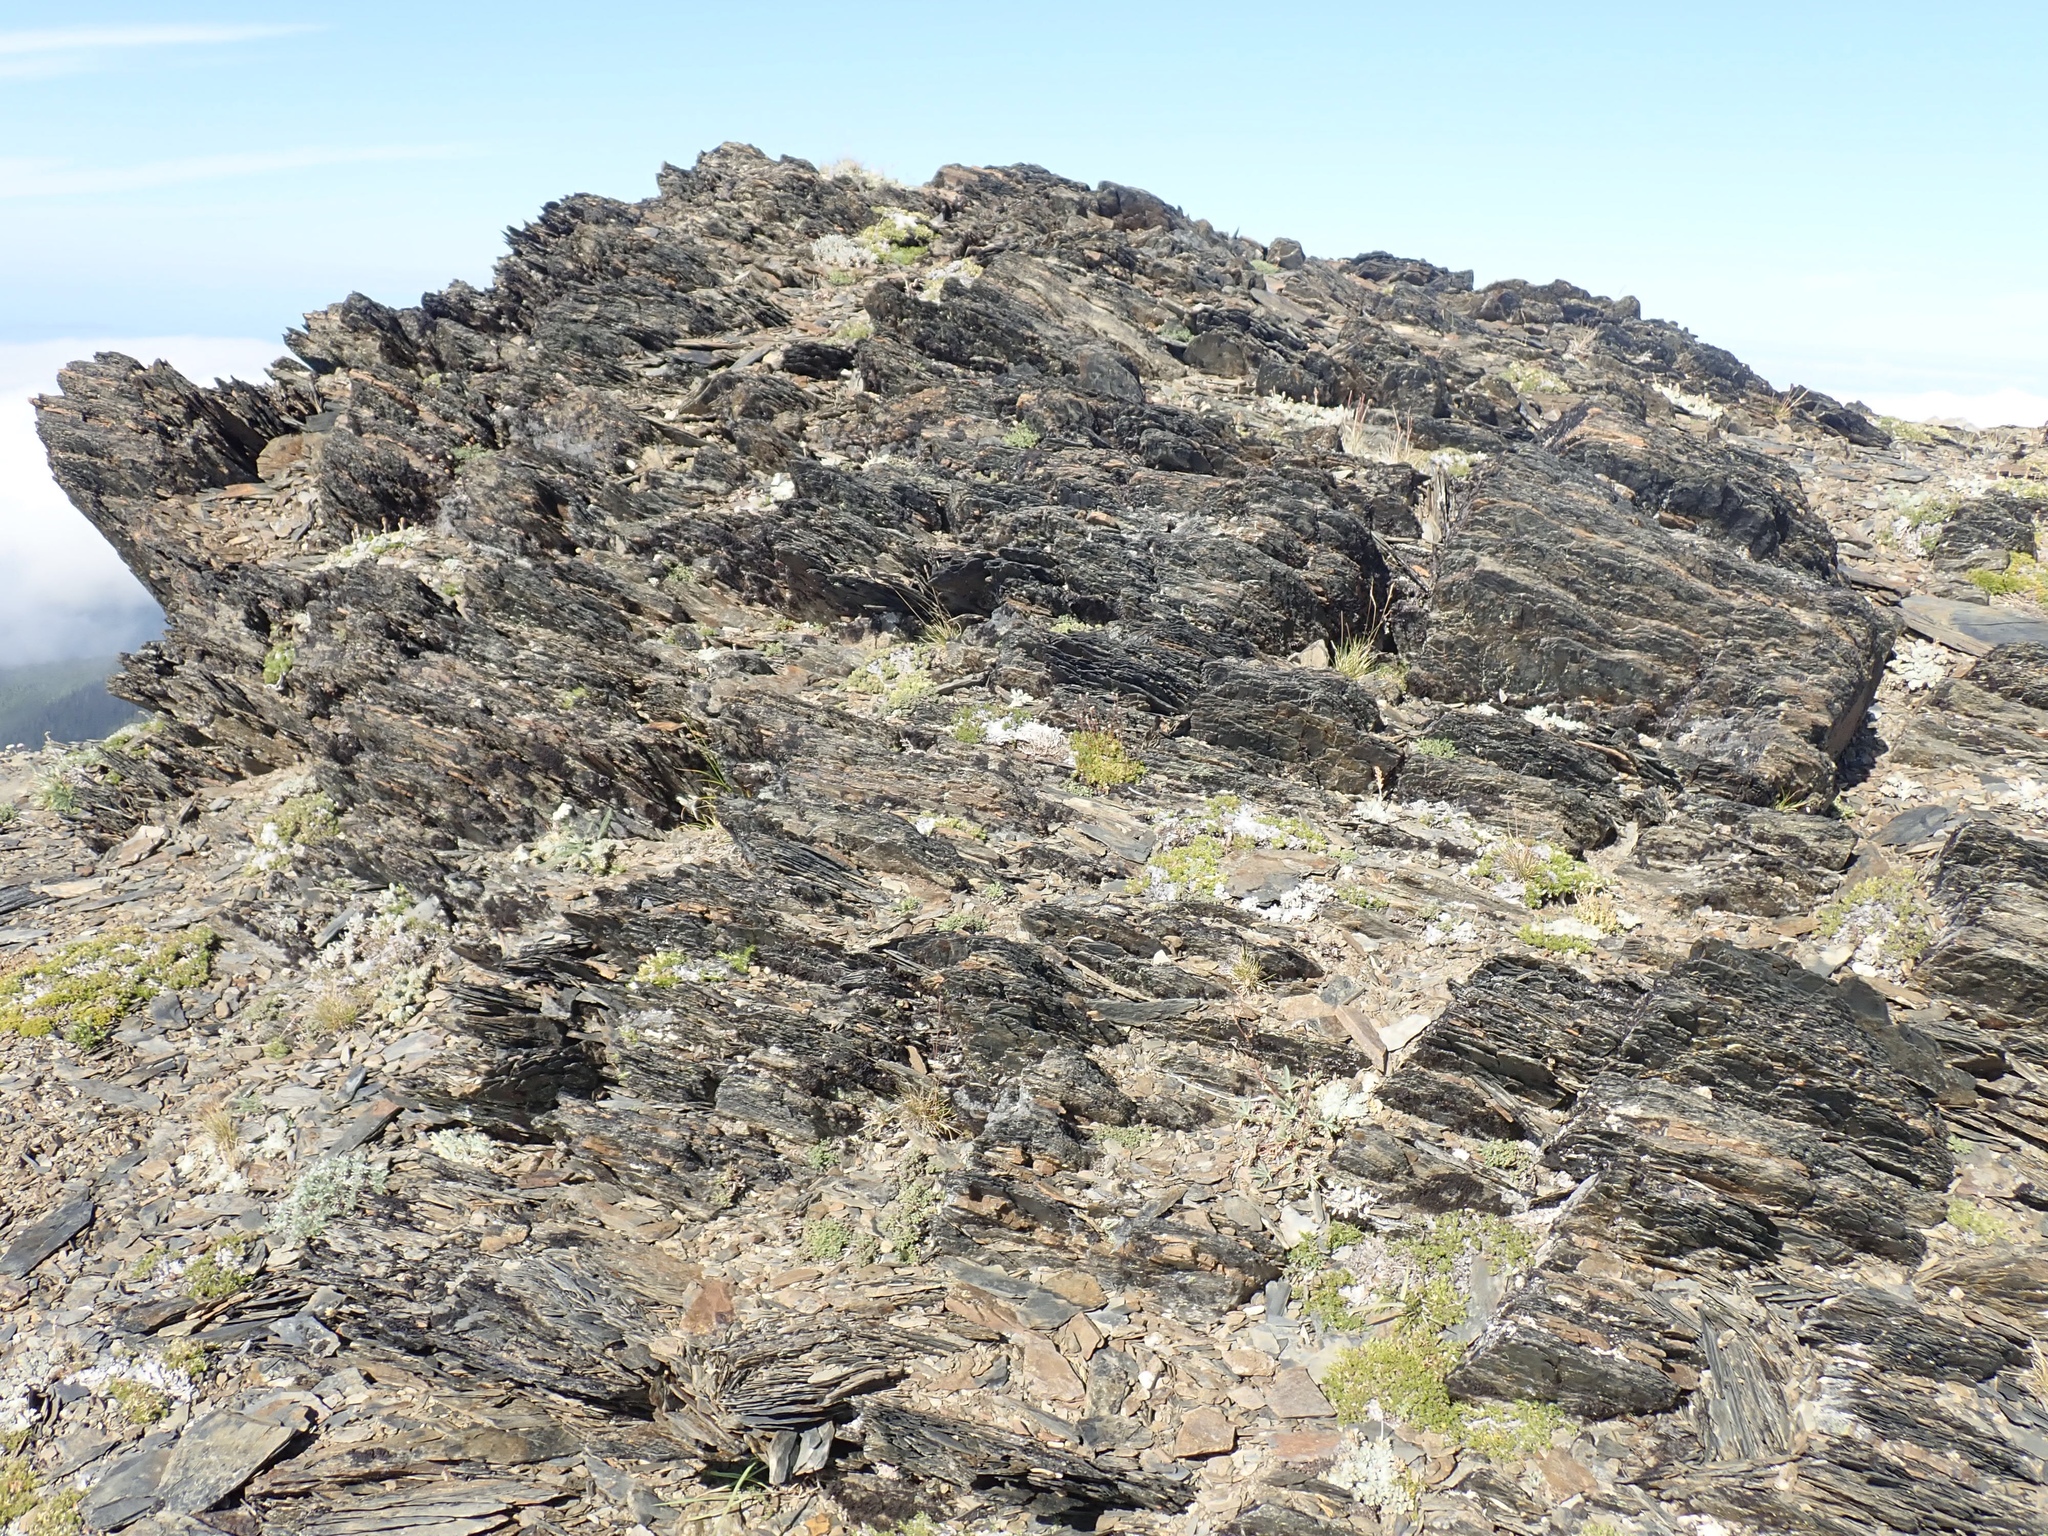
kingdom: Plantae
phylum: Tracheophyta
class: Magnoliopsida
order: Caryophyllales
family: Caryophyllaceae
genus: Cherleria
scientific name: Cherleria obtusiloba
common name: Alpine stitchwort
